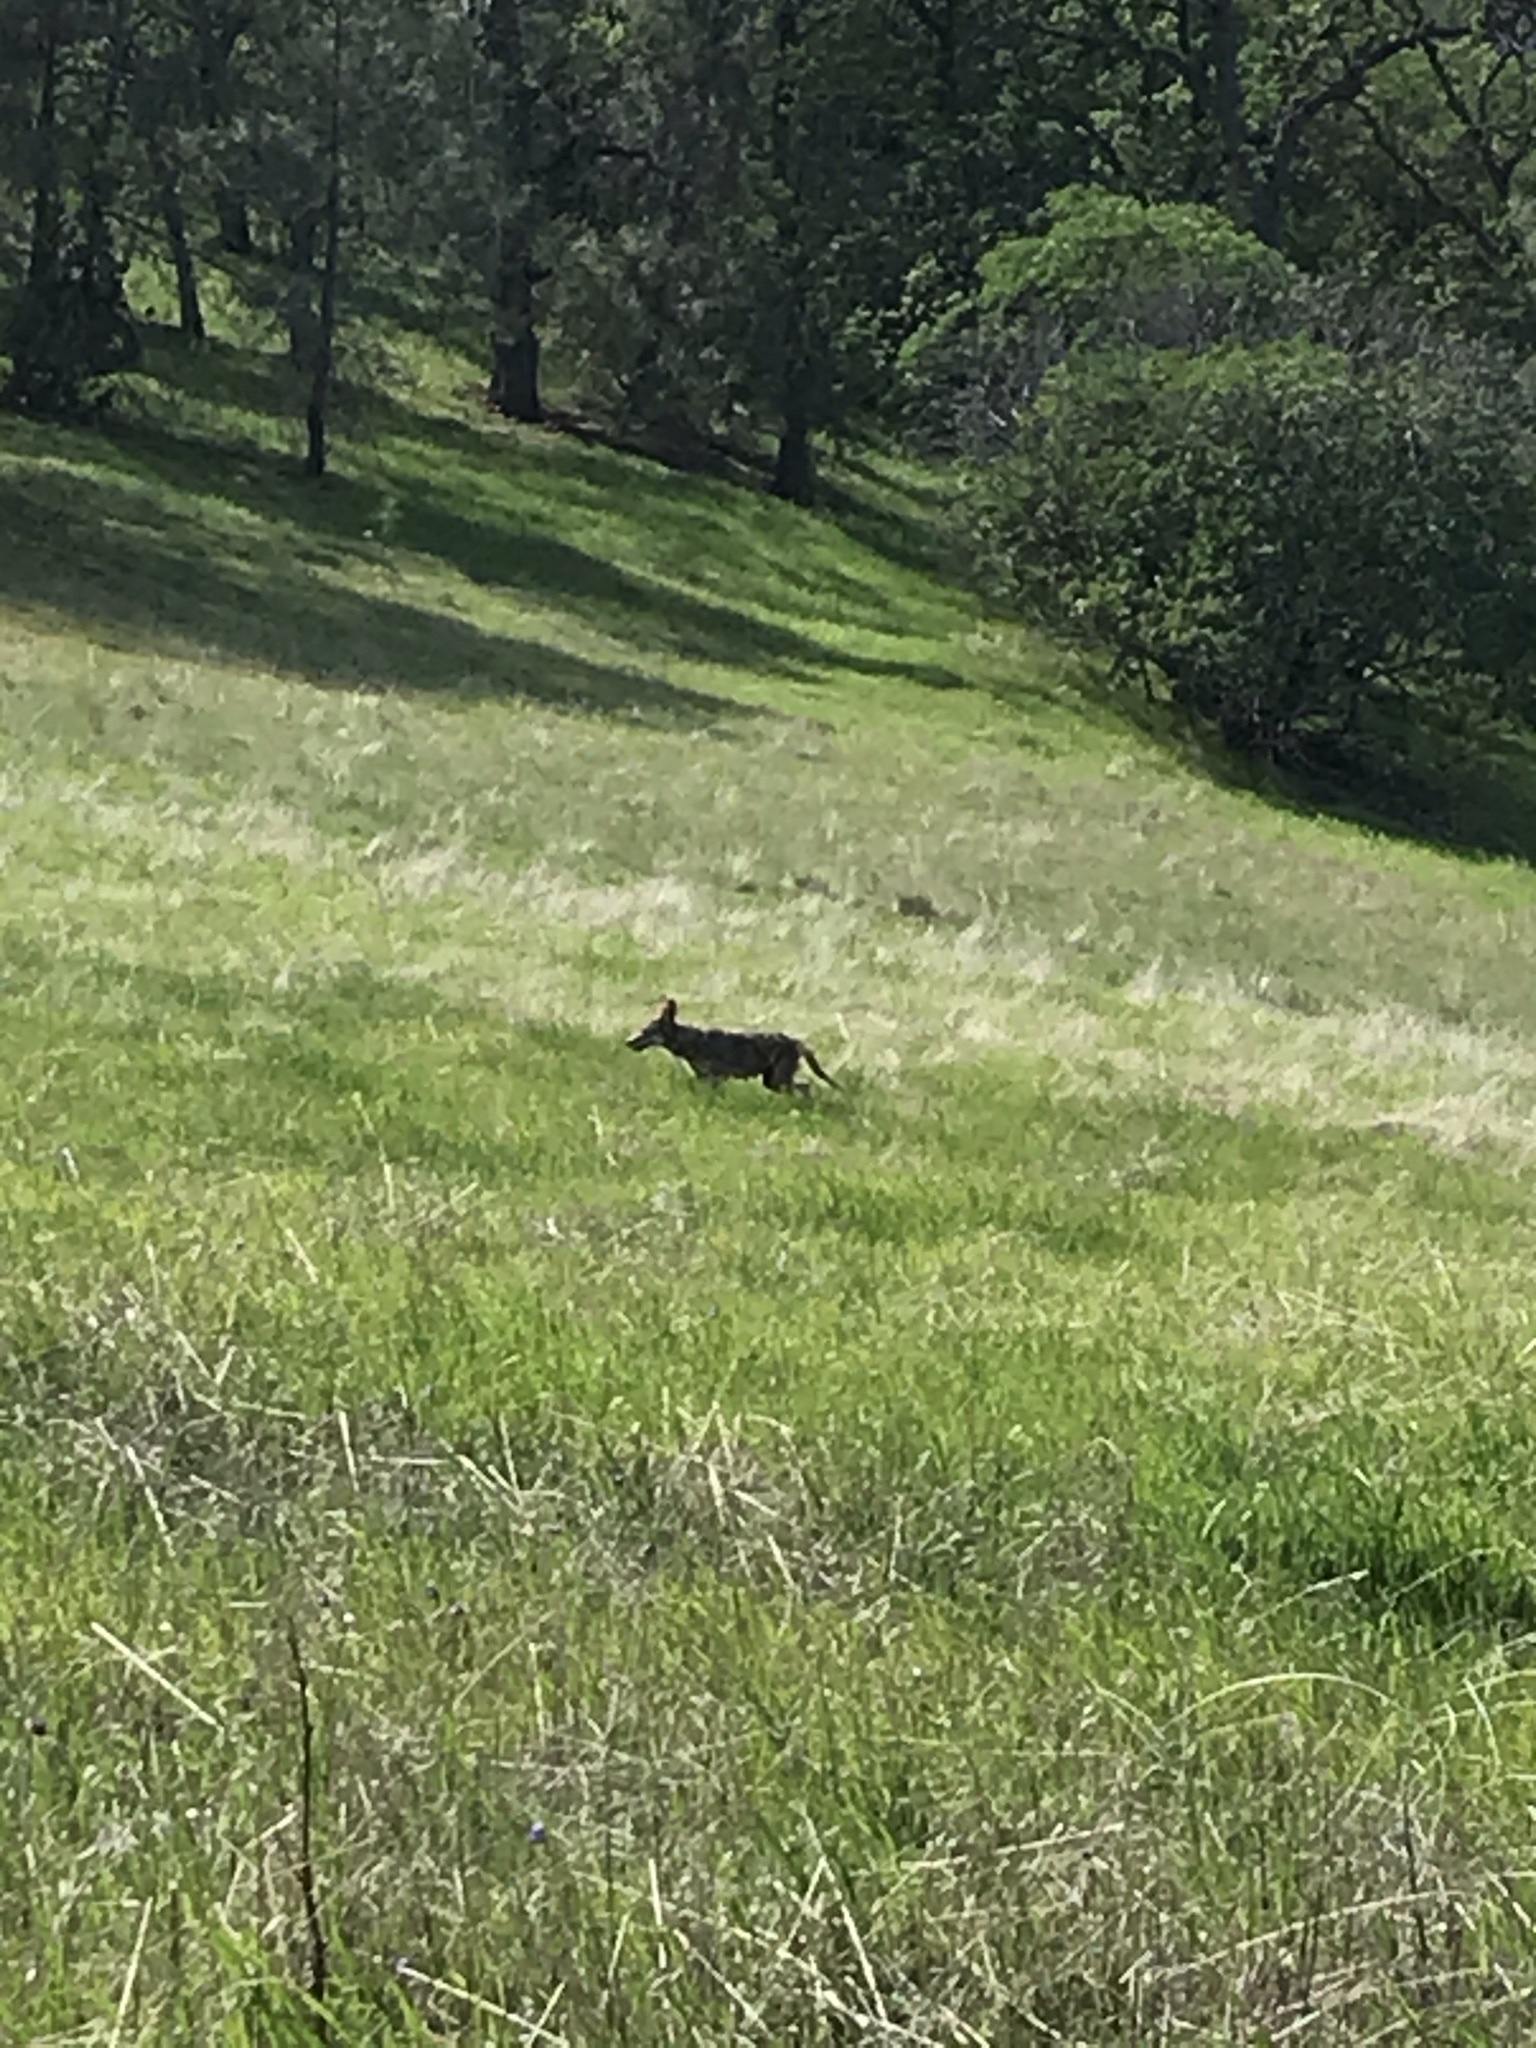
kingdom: Animalia
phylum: Chordata
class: Mammalia
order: Carnivora
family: Canidae
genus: Canis
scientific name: Canis latrans
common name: Coyote
